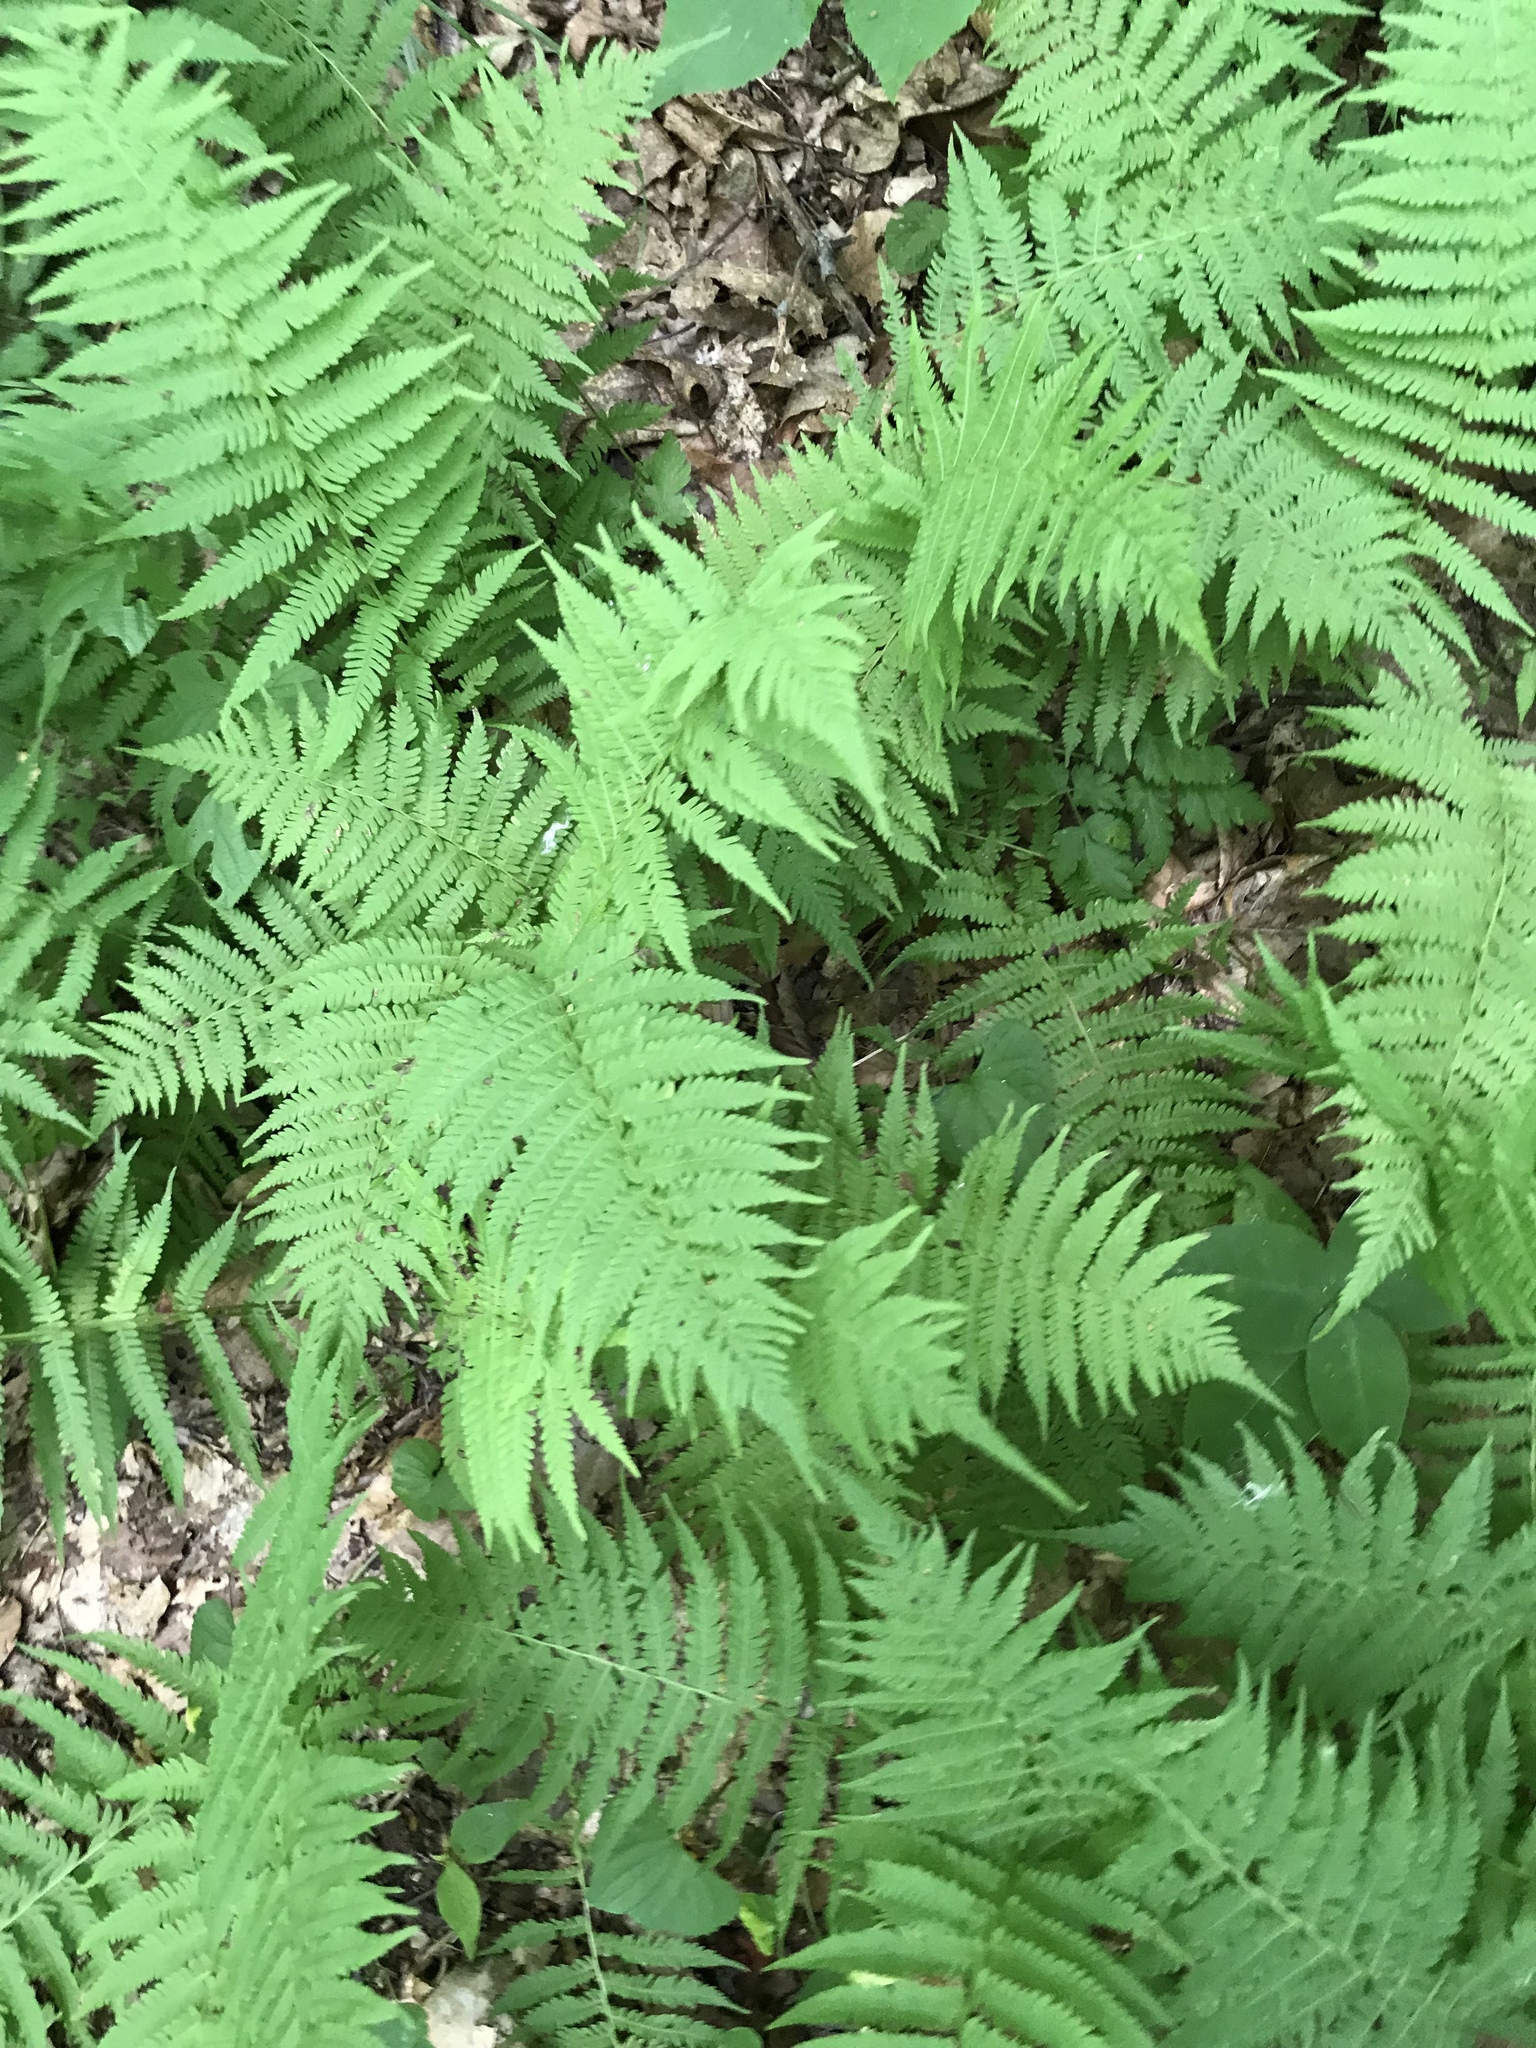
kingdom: Plantae
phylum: Tracheophyta
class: Polypodiopsida
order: Polypodiales
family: Thelypteridaceae
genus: Amauropelta
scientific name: Amauropelta noveboracensis
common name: New york fern
